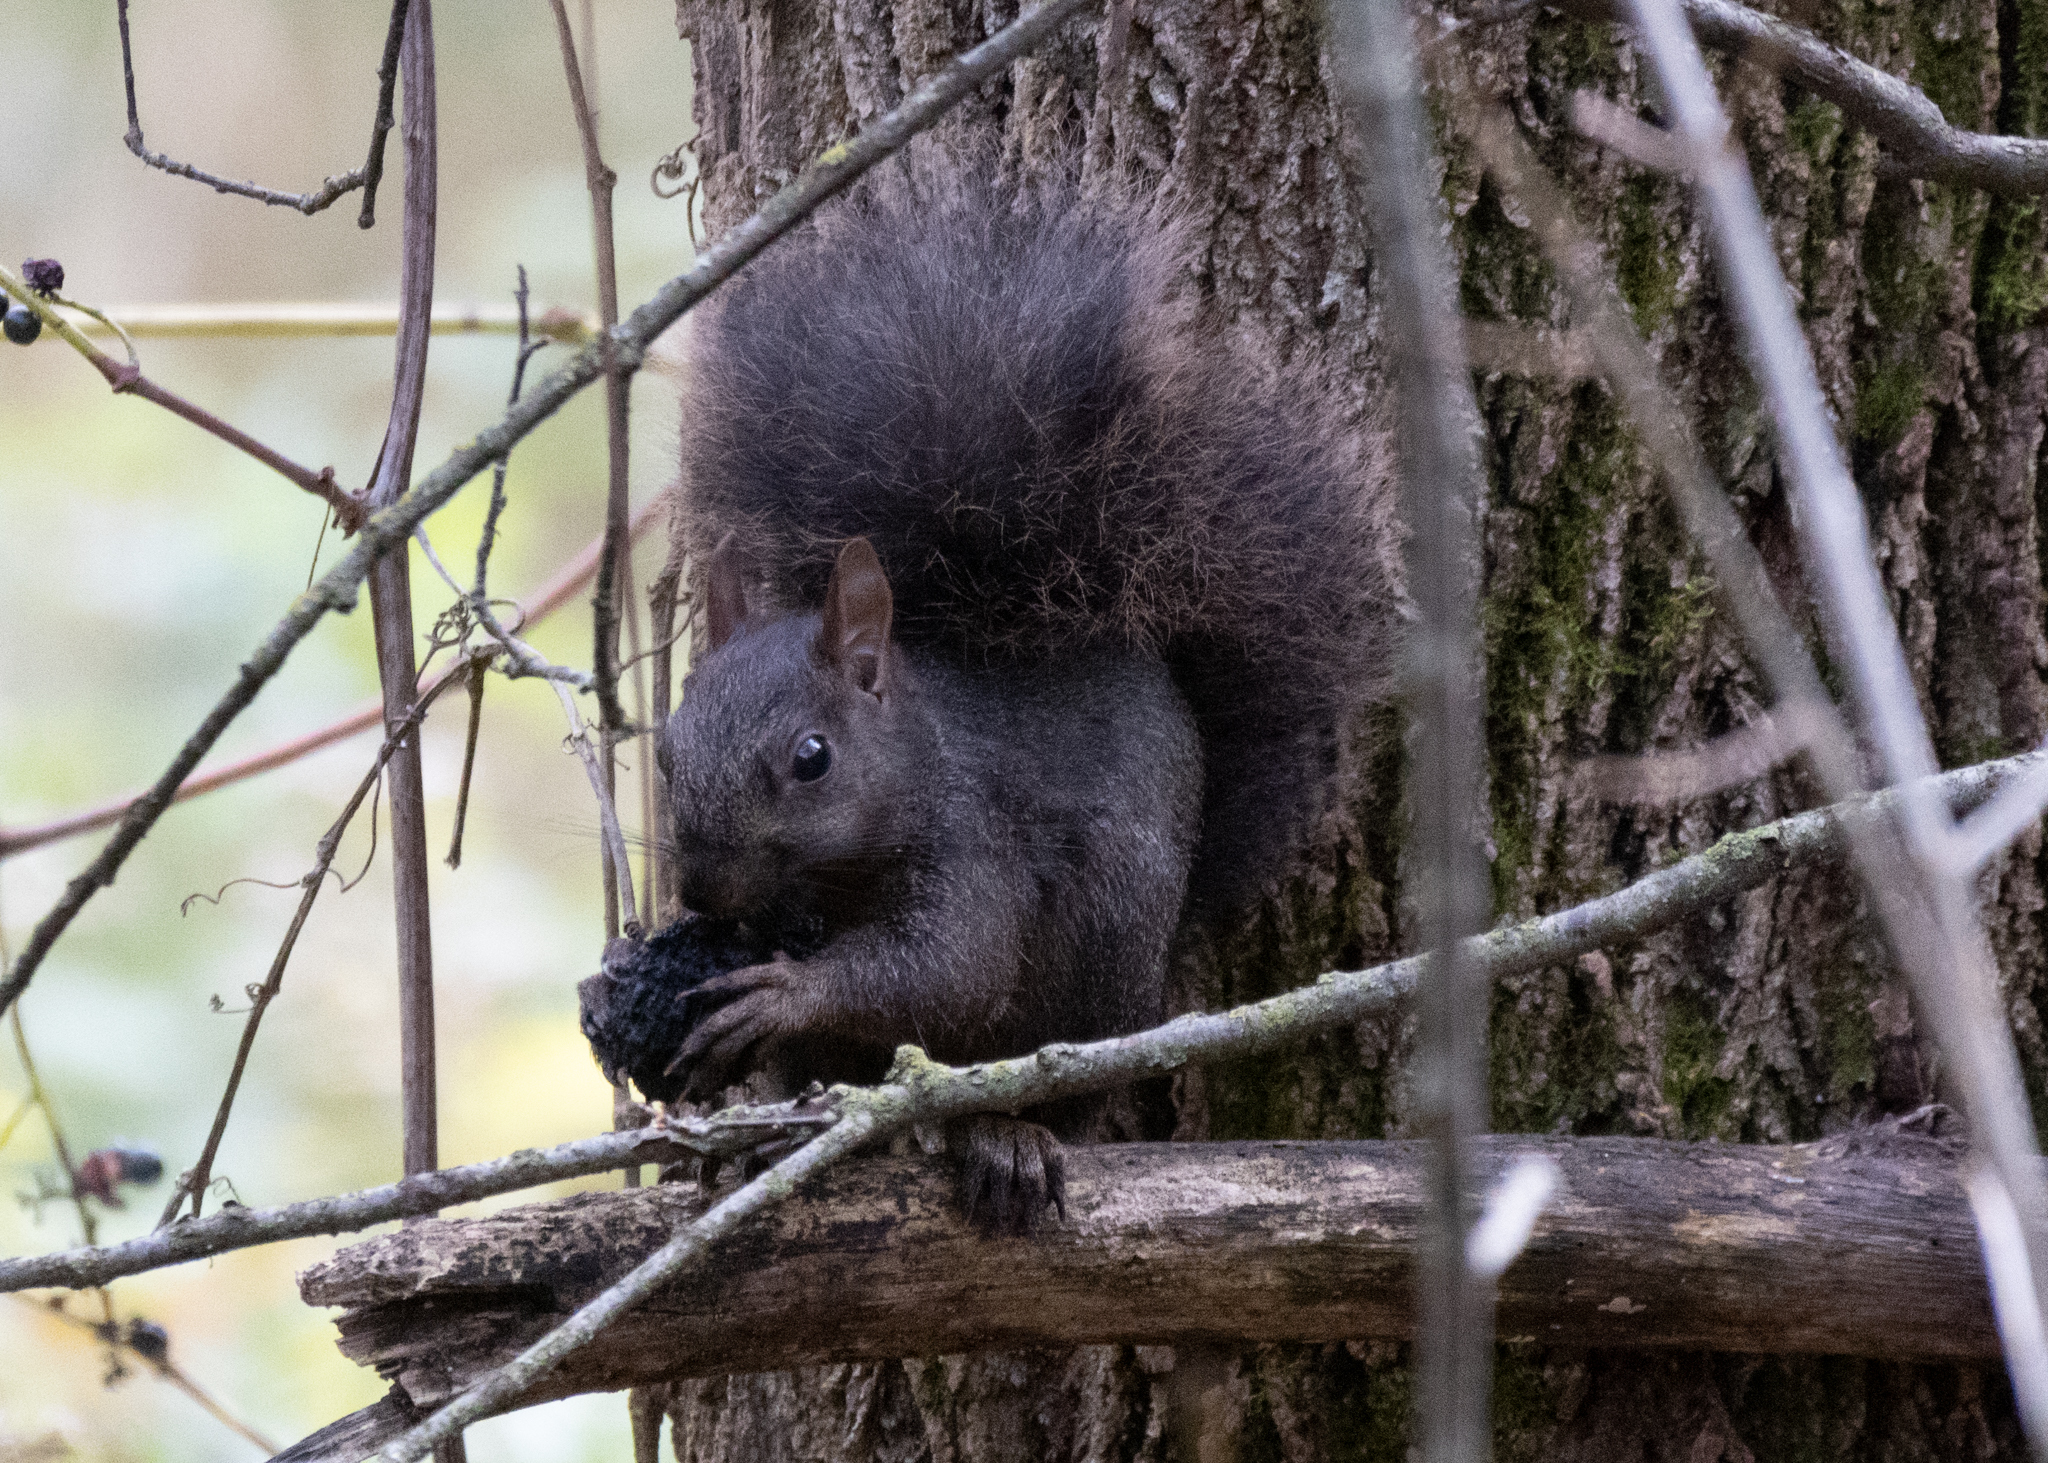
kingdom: Animalia
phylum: Chordata
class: Mammalia
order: Rodentia
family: Sciuridae
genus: Sciurus
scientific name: Sciurus carolinensis
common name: Eastern gray squirrel
